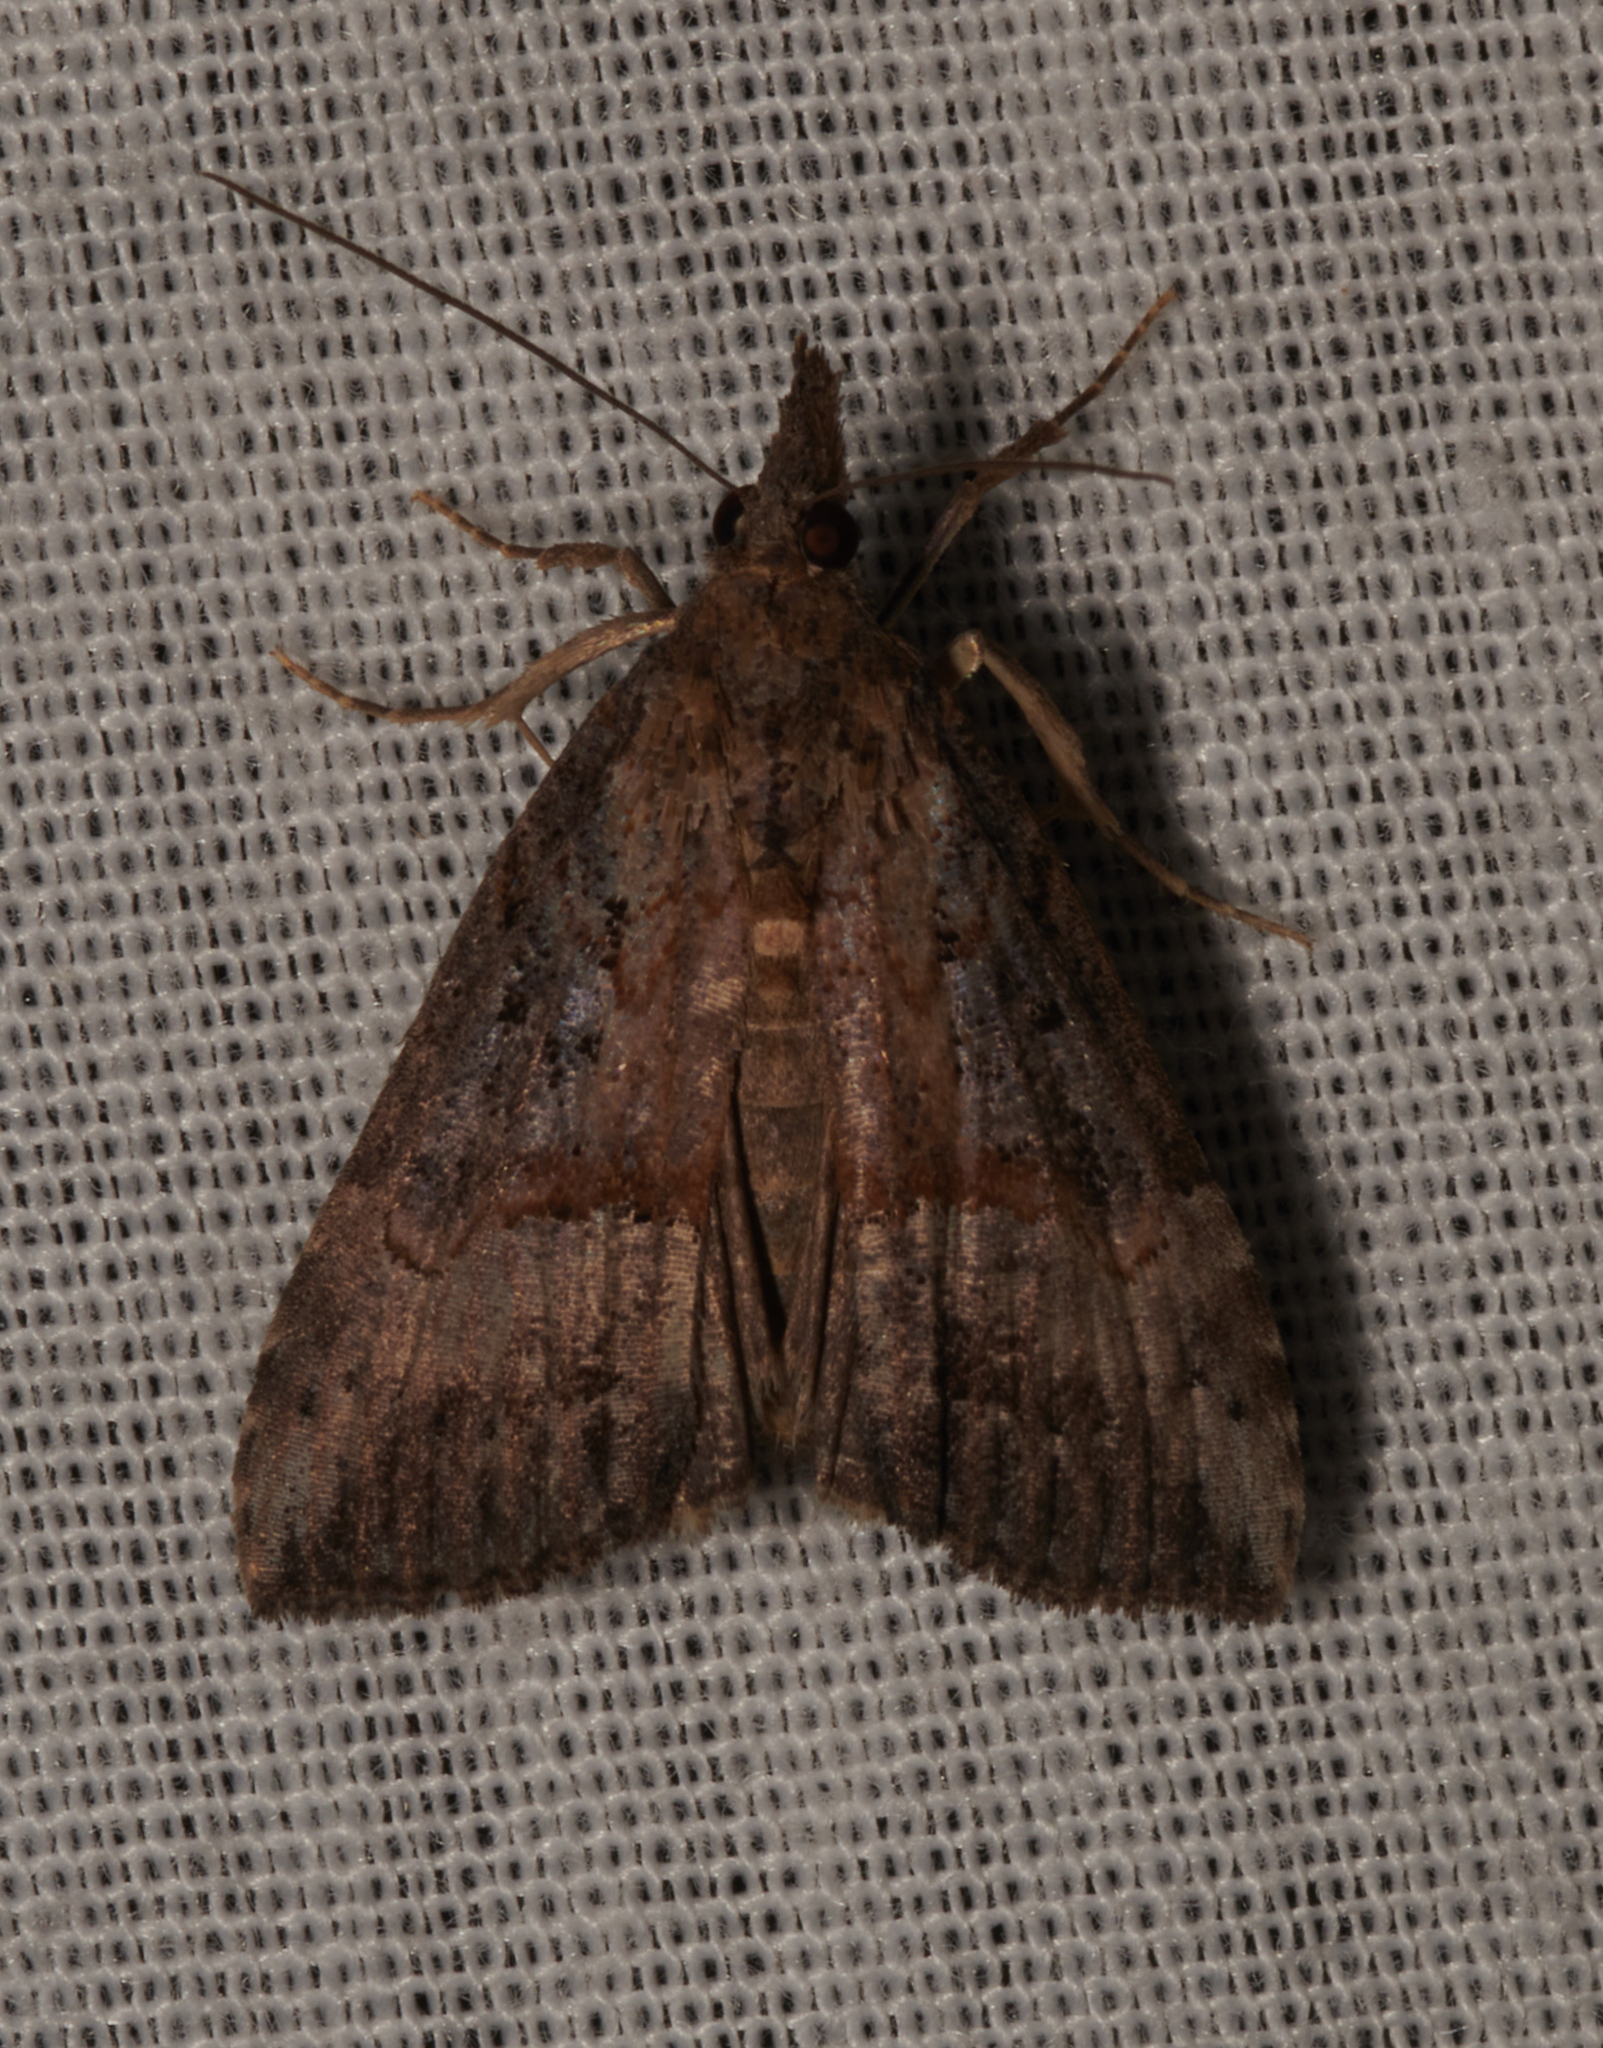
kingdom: Animalia
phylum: Arthropoda
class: Insecta
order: Lepidoptera
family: Erebidae
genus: Hypena
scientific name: Hypena scabra
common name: Green cloverworm
